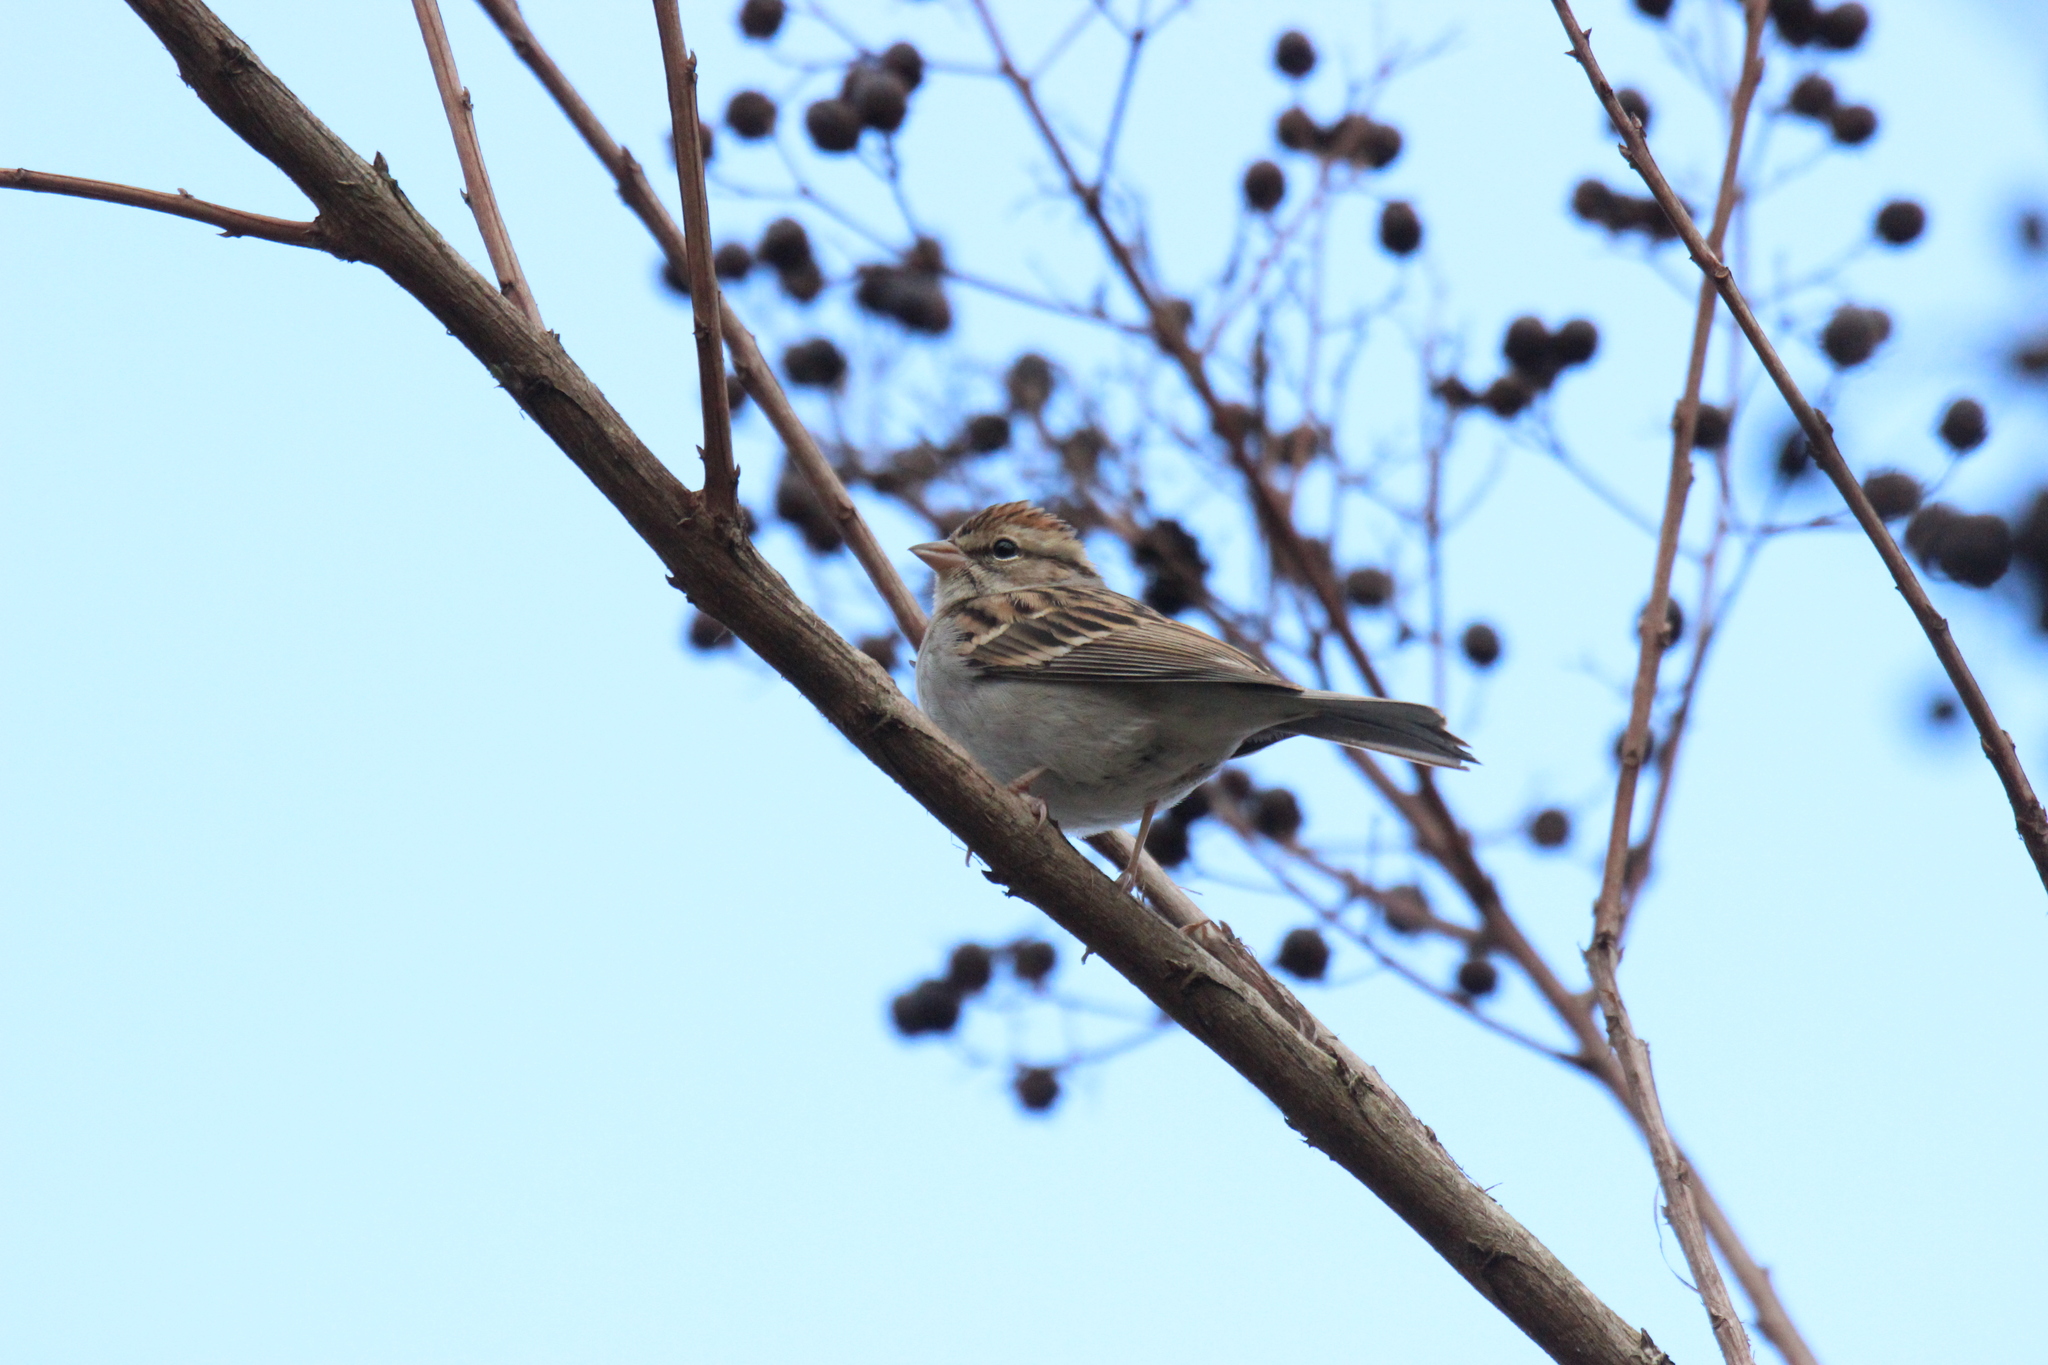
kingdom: Animalia
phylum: Chordata
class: Aves
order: Passeriformes
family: Passerellidae
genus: Spizella
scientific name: Spizella passerina
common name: Chipping sparrow
